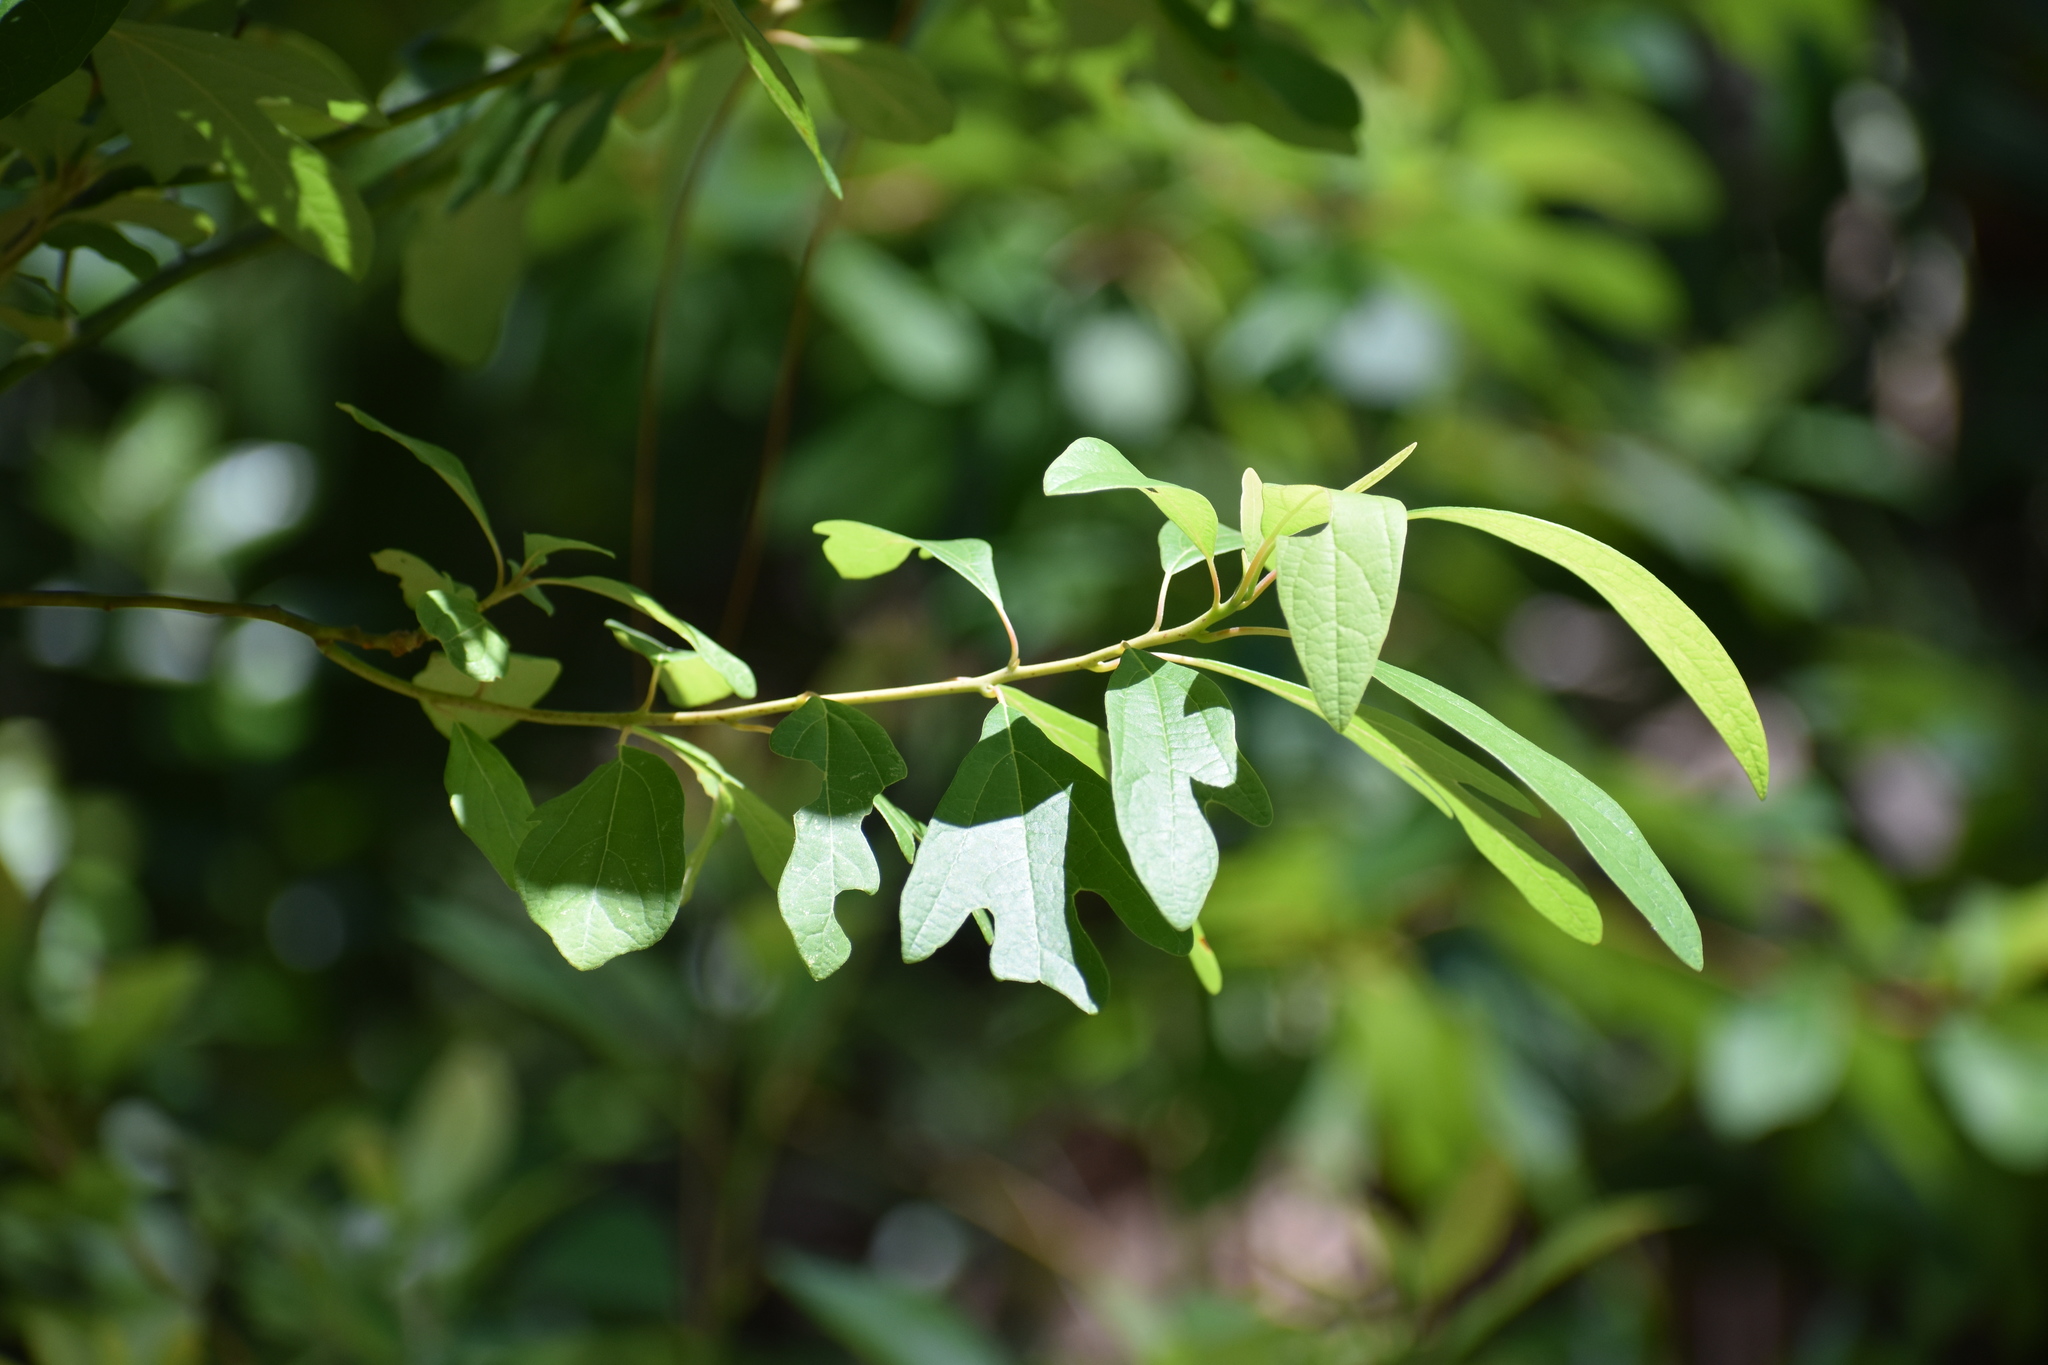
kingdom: Plantae
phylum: Tracheophyta
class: Magnoliopsida
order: Laurales
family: Lauraceae
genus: Sassafras
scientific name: Sassafras albidum
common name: Sassafras
